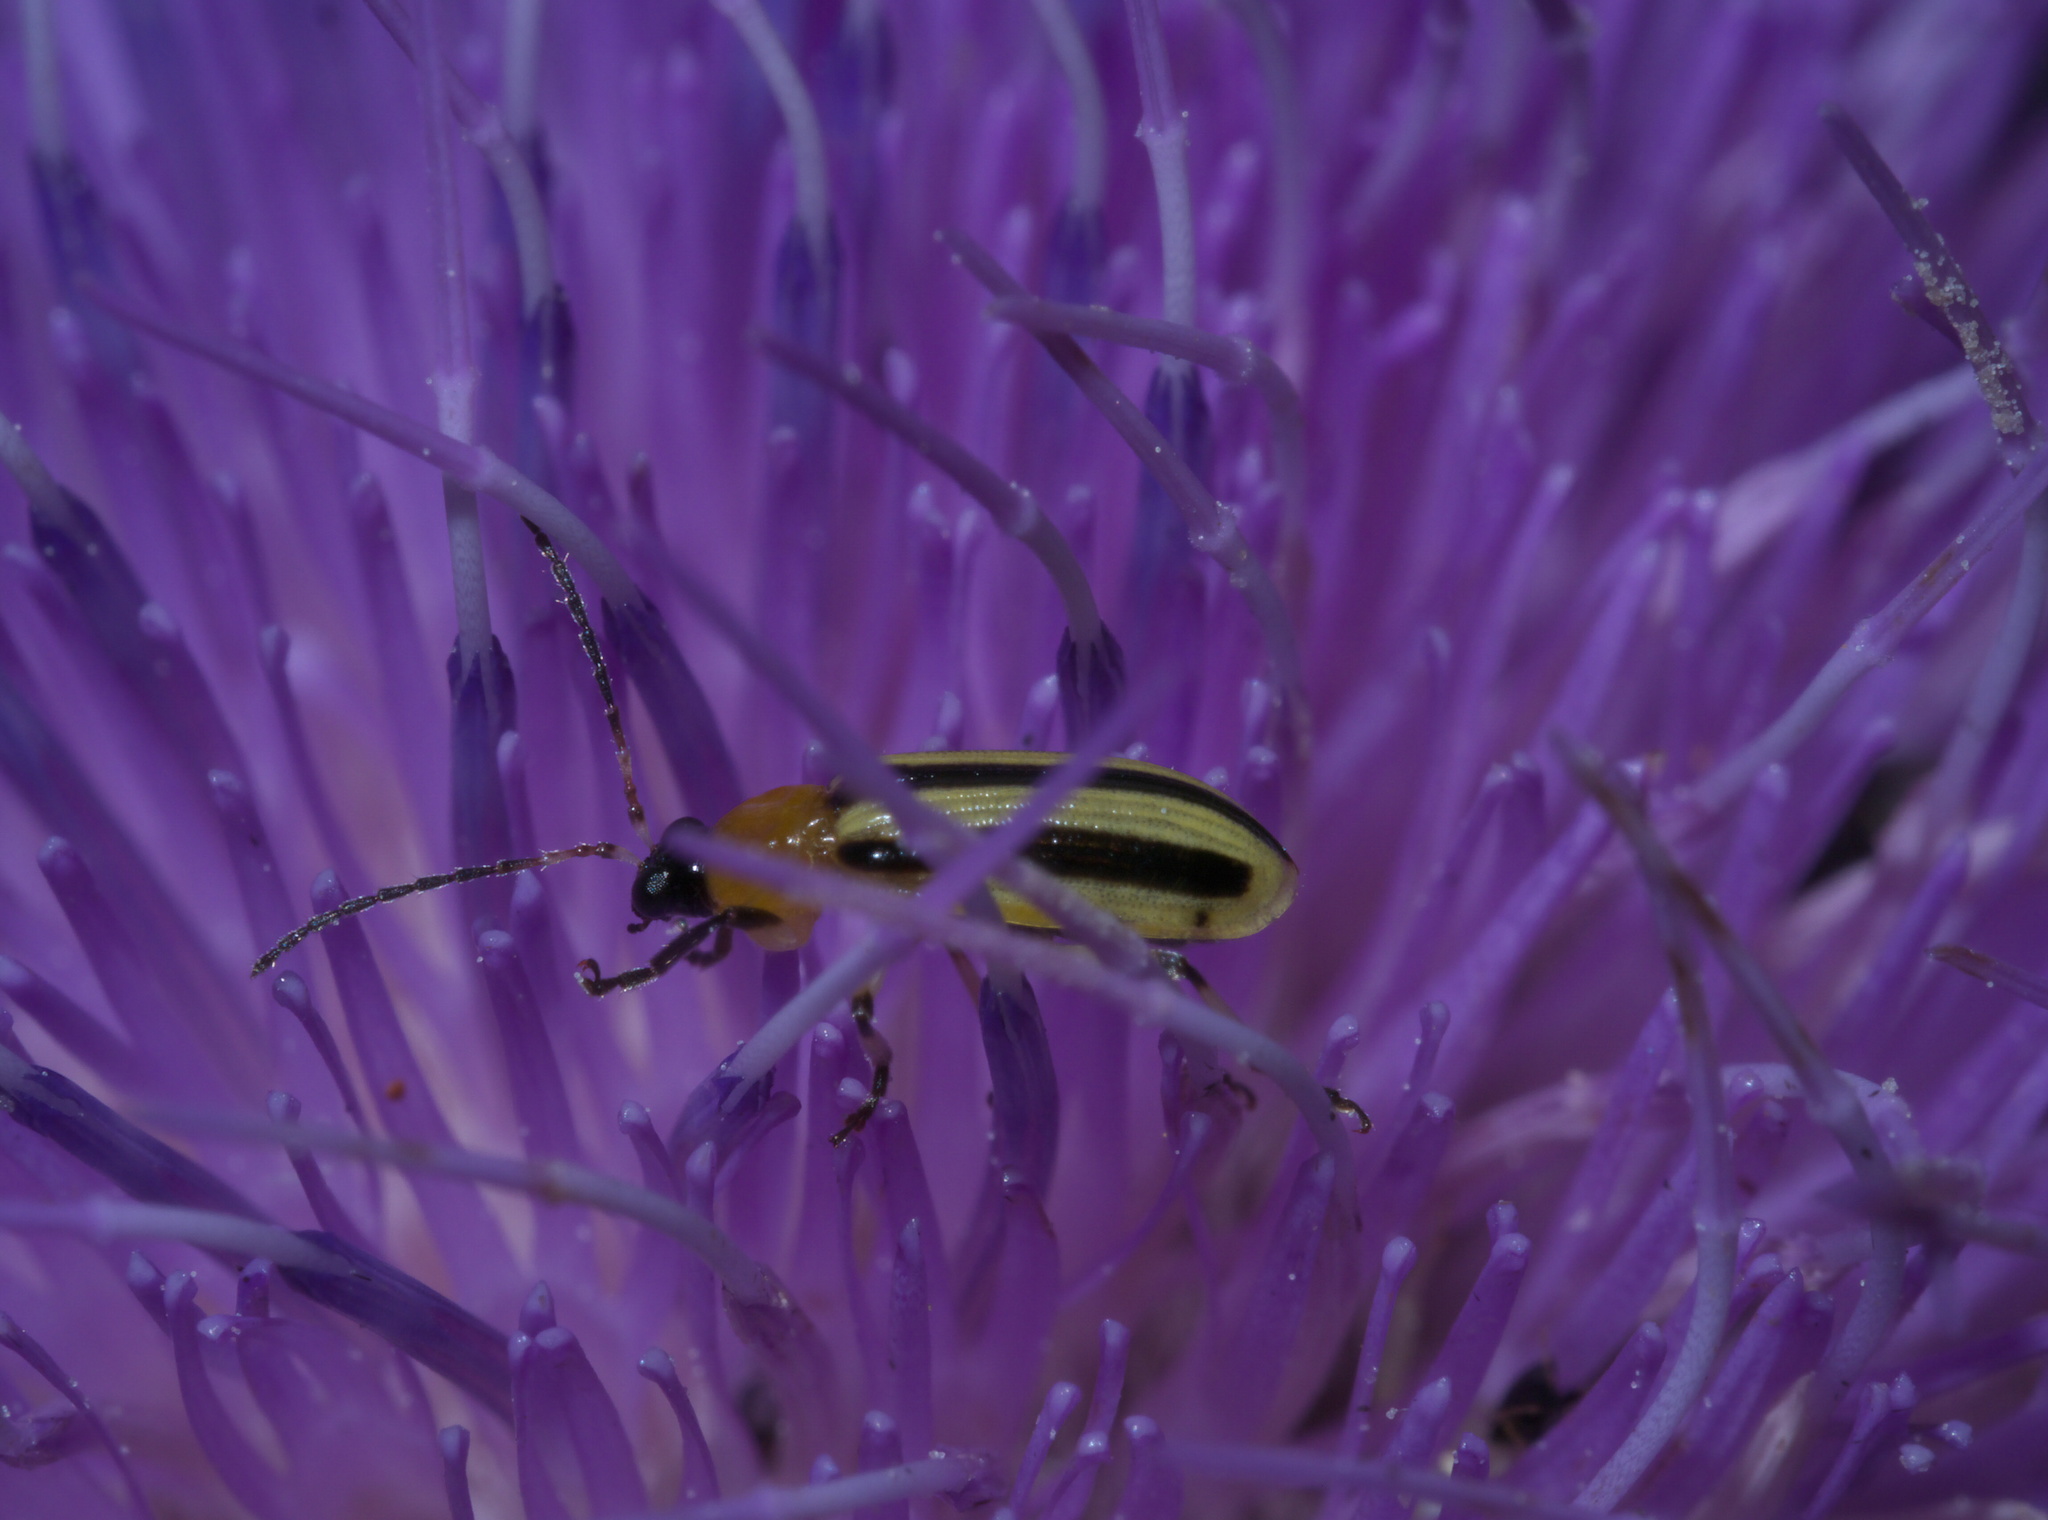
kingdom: Animalia
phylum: Arthropoda
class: Insecta
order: Coleoptera
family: Chrysomelidae
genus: Acalymma
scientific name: Acalymma vittatum
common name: Striped cucumber beetle
